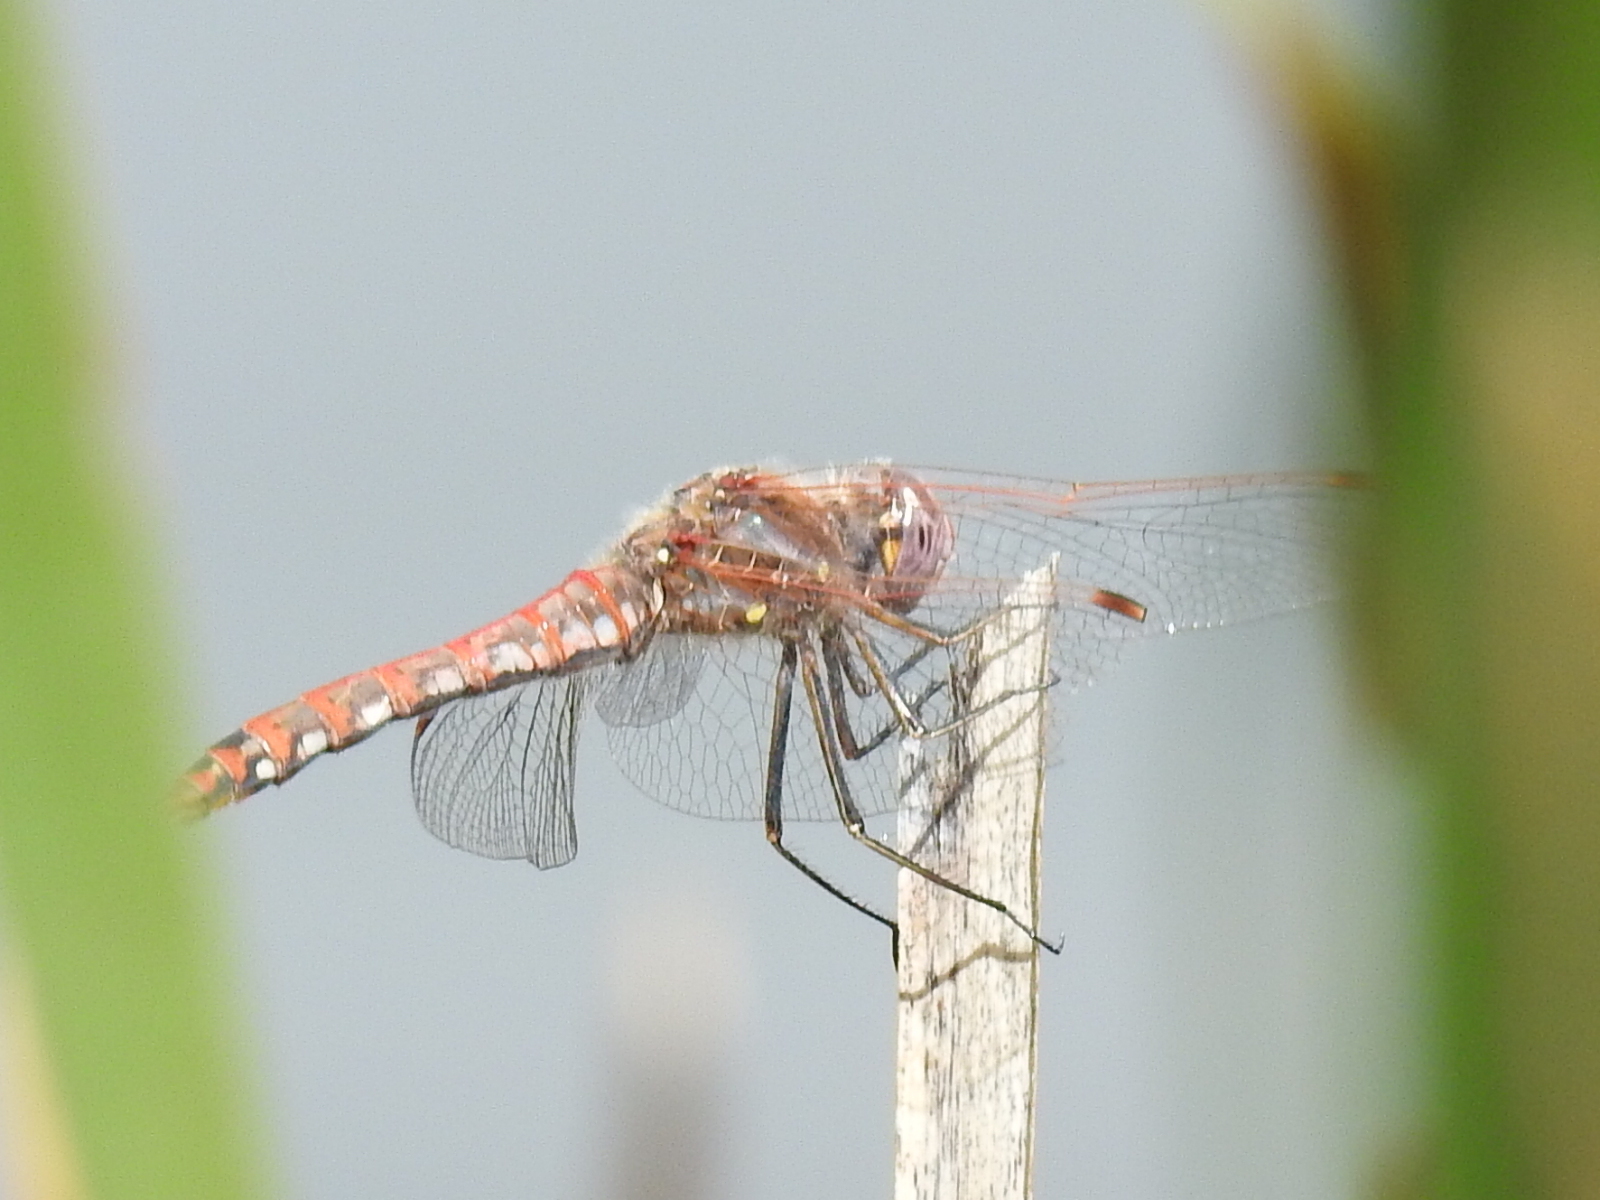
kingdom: Animalia
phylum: Arthropoda
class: Insecta
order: Odonata
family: Libellulidae
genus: Sympetrum
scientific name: Sympetrum corruptum
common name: Variegated meadowhawk
